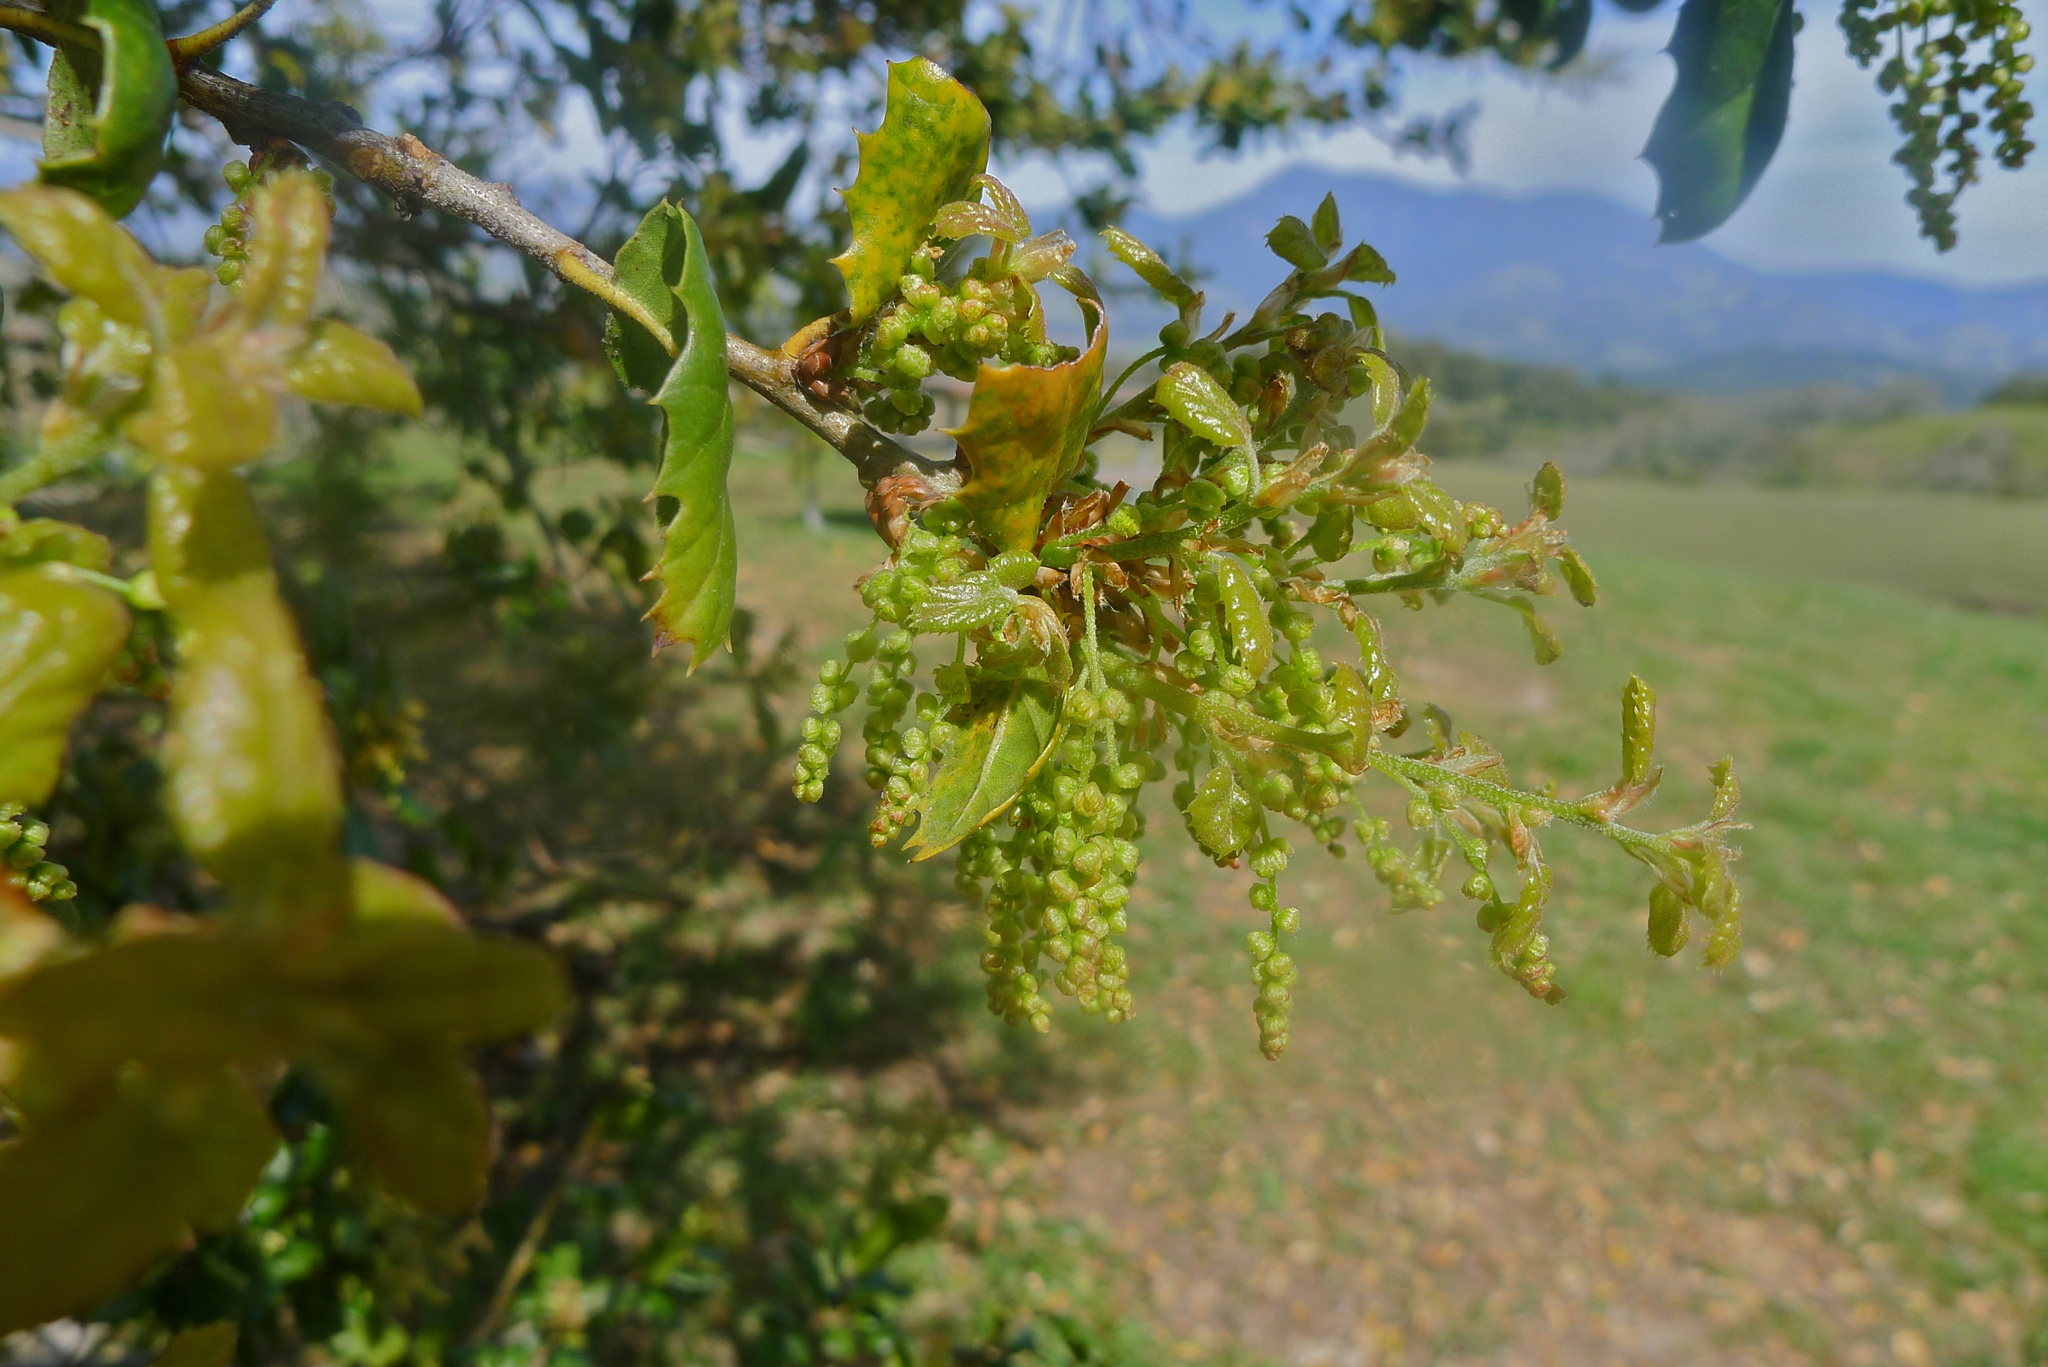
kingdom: Plantae
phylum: Tracheophyta
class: Magnoliopsida
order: Fagales
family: Fagaceae
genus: Quercus
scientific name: Quercus agrifolia
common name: California live oak
